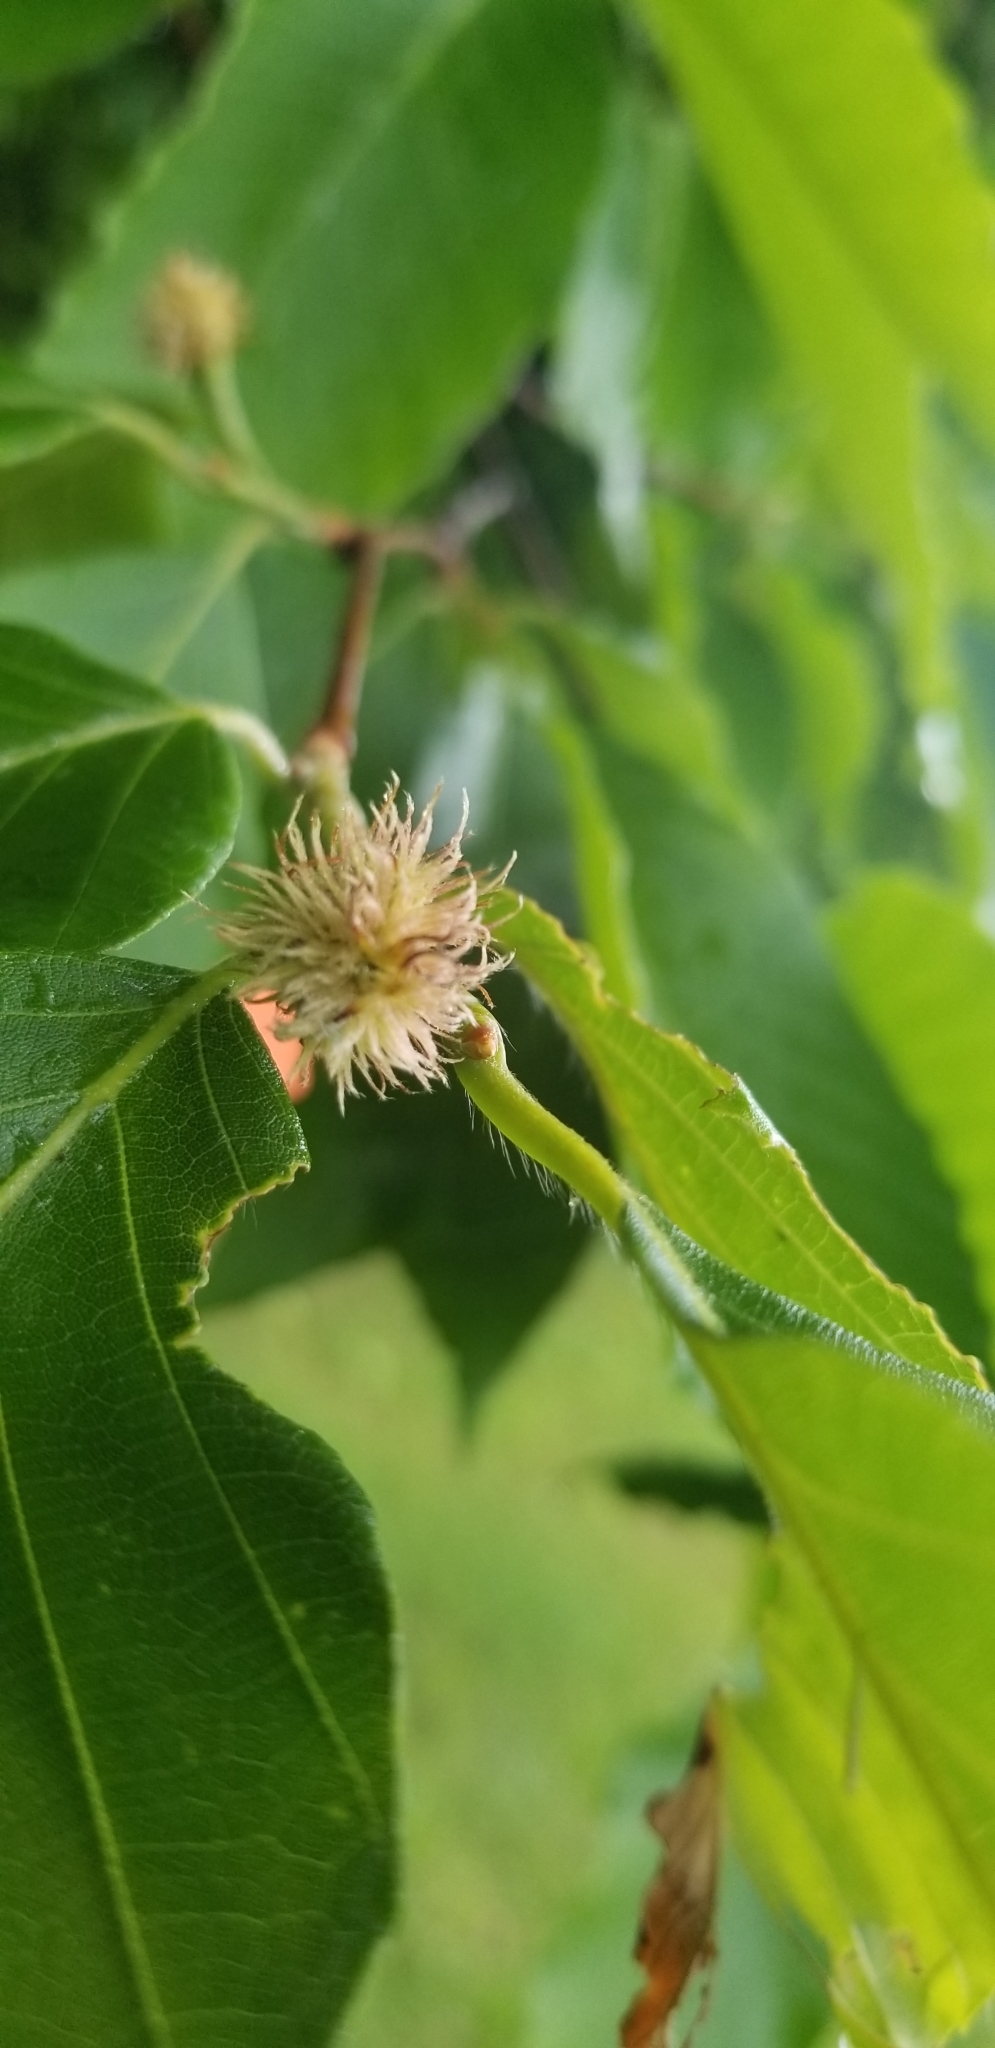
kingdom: Plantae
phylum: Tracheophyta
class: Magnoliopsida
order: Fagales
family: Fagaceae
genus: Fagus
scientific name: Fagus grandifolia
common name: American beech
